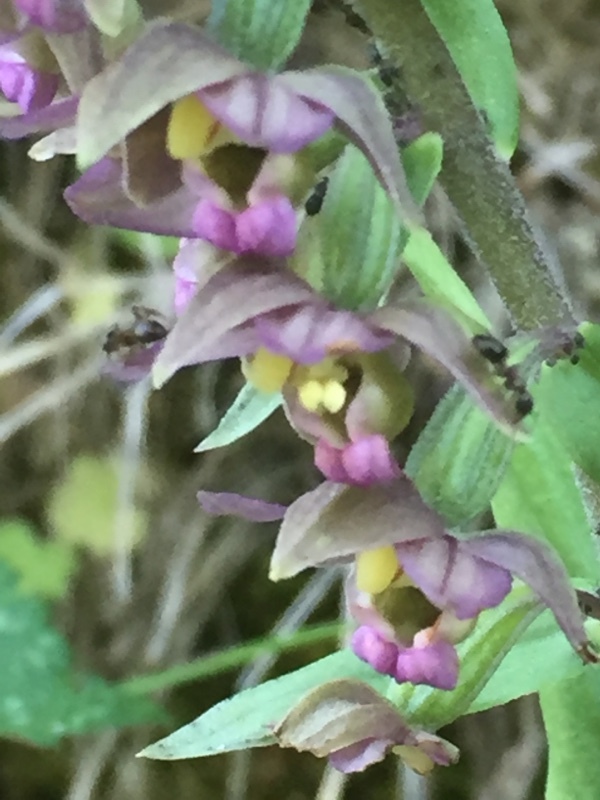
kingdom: Plantae
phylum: Tracheophyta
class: Liliopsida
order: Asparagales
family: Orchidaceae
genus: Epipactis
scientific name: Epipactis helleborine
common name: Broad-leaved helleborine
